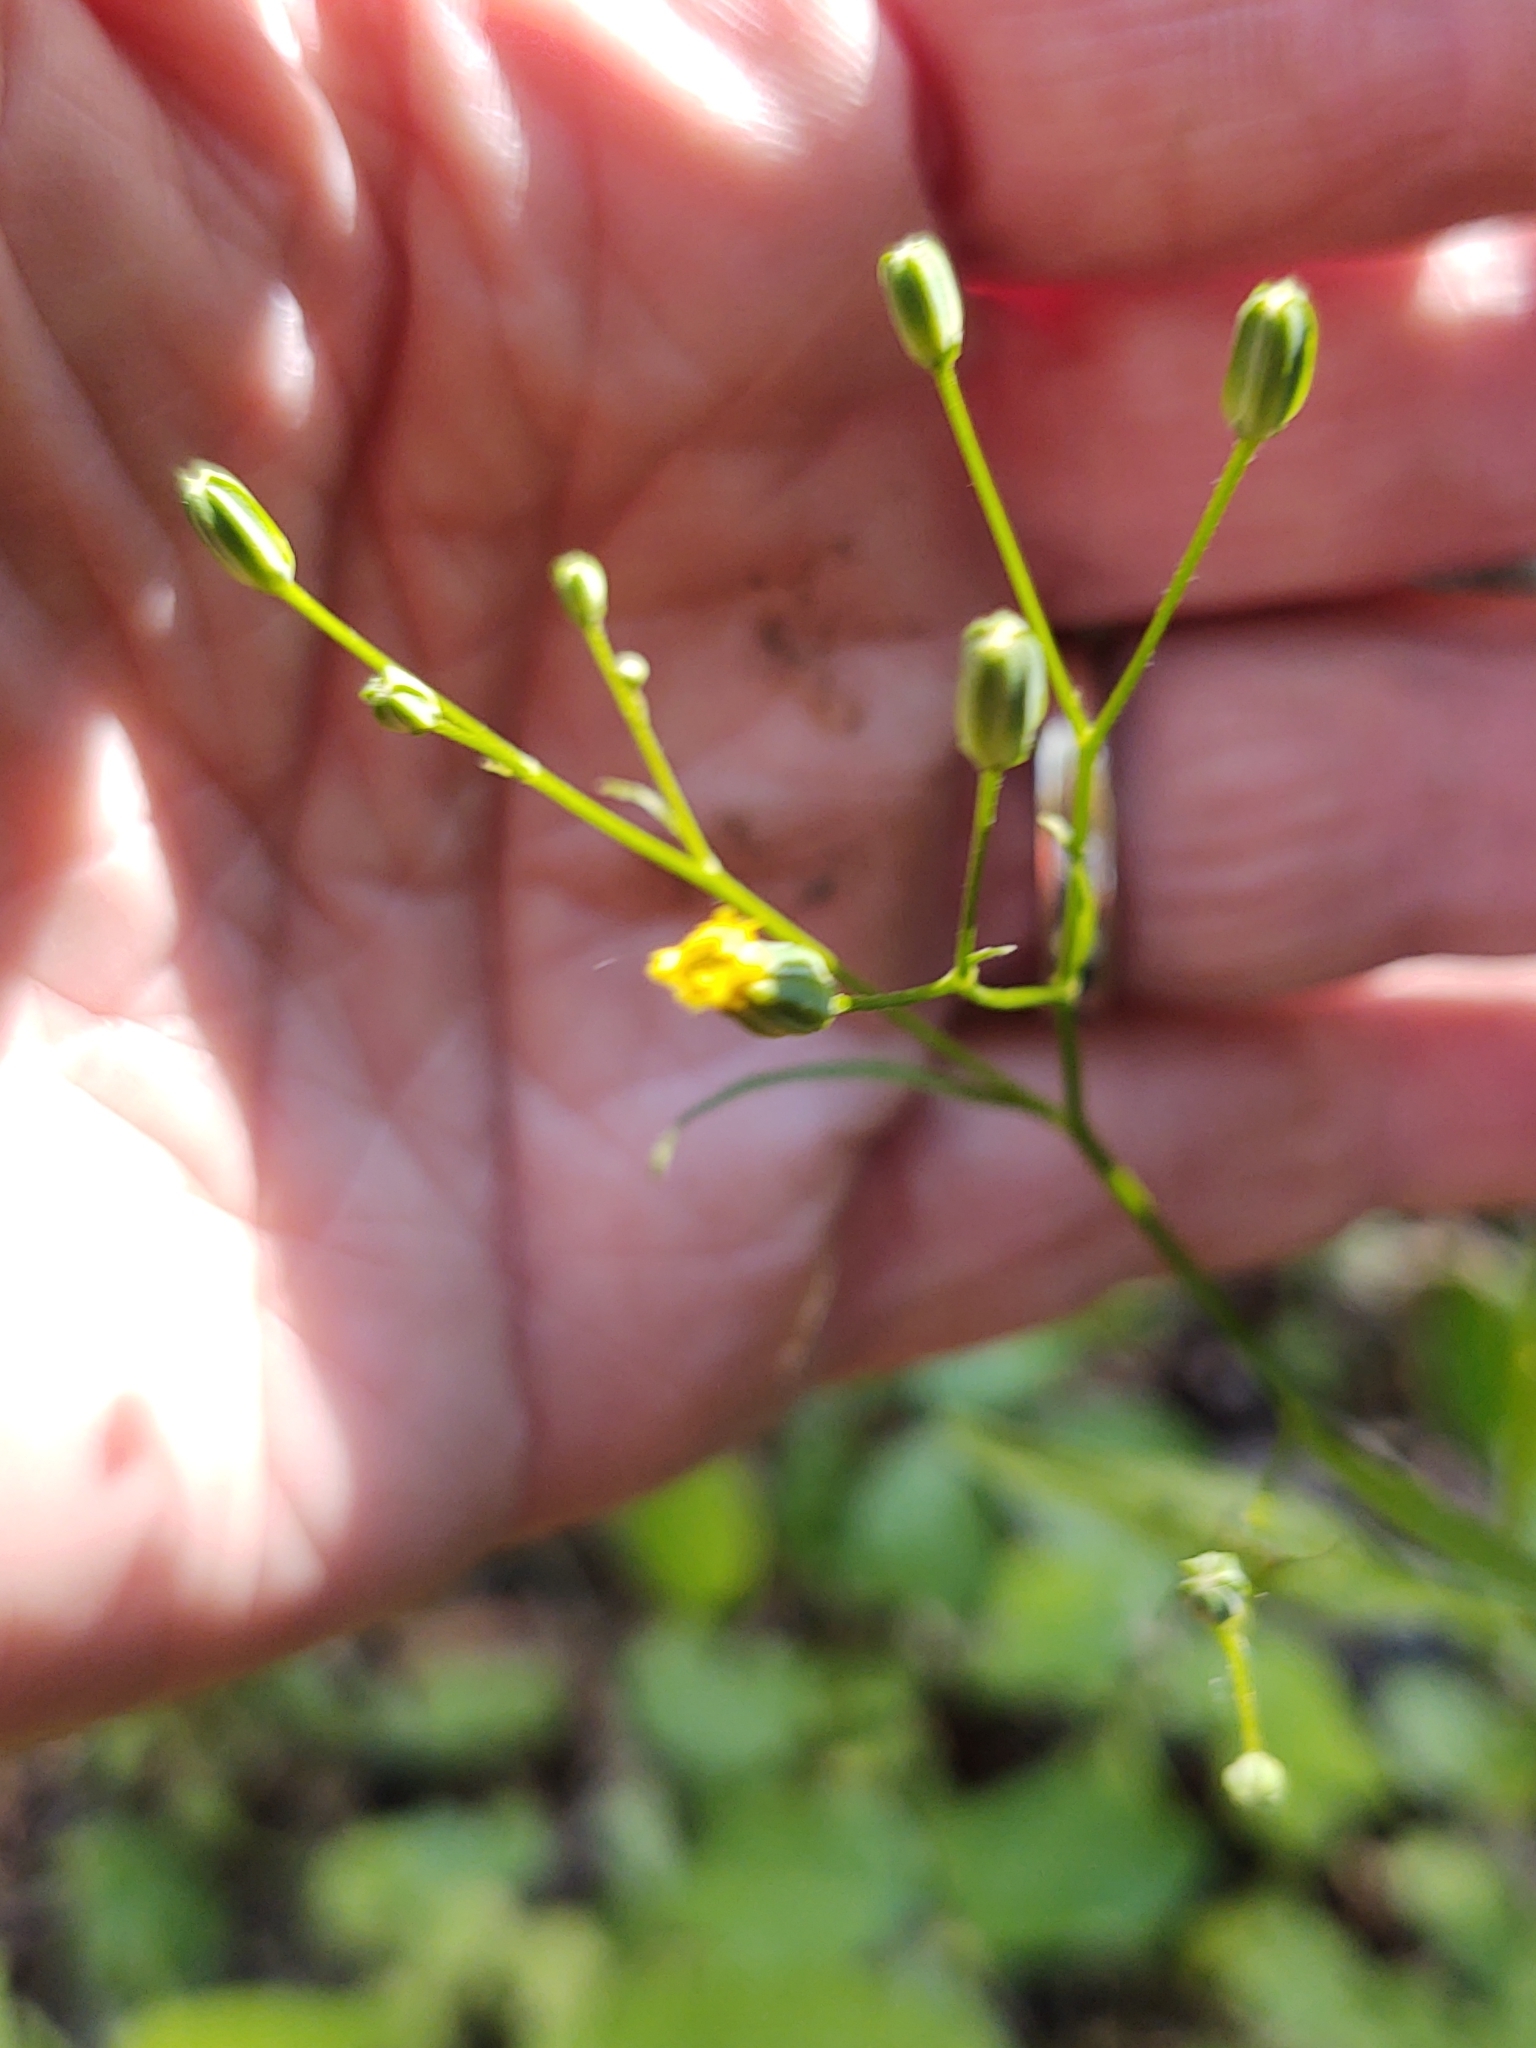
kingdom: Plantae
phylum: Tracheophyta
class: Magnoliopsida
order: Asterales
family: Asteraceae
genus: Lapsana
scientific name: Lapsana communis
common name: Nipplewort
